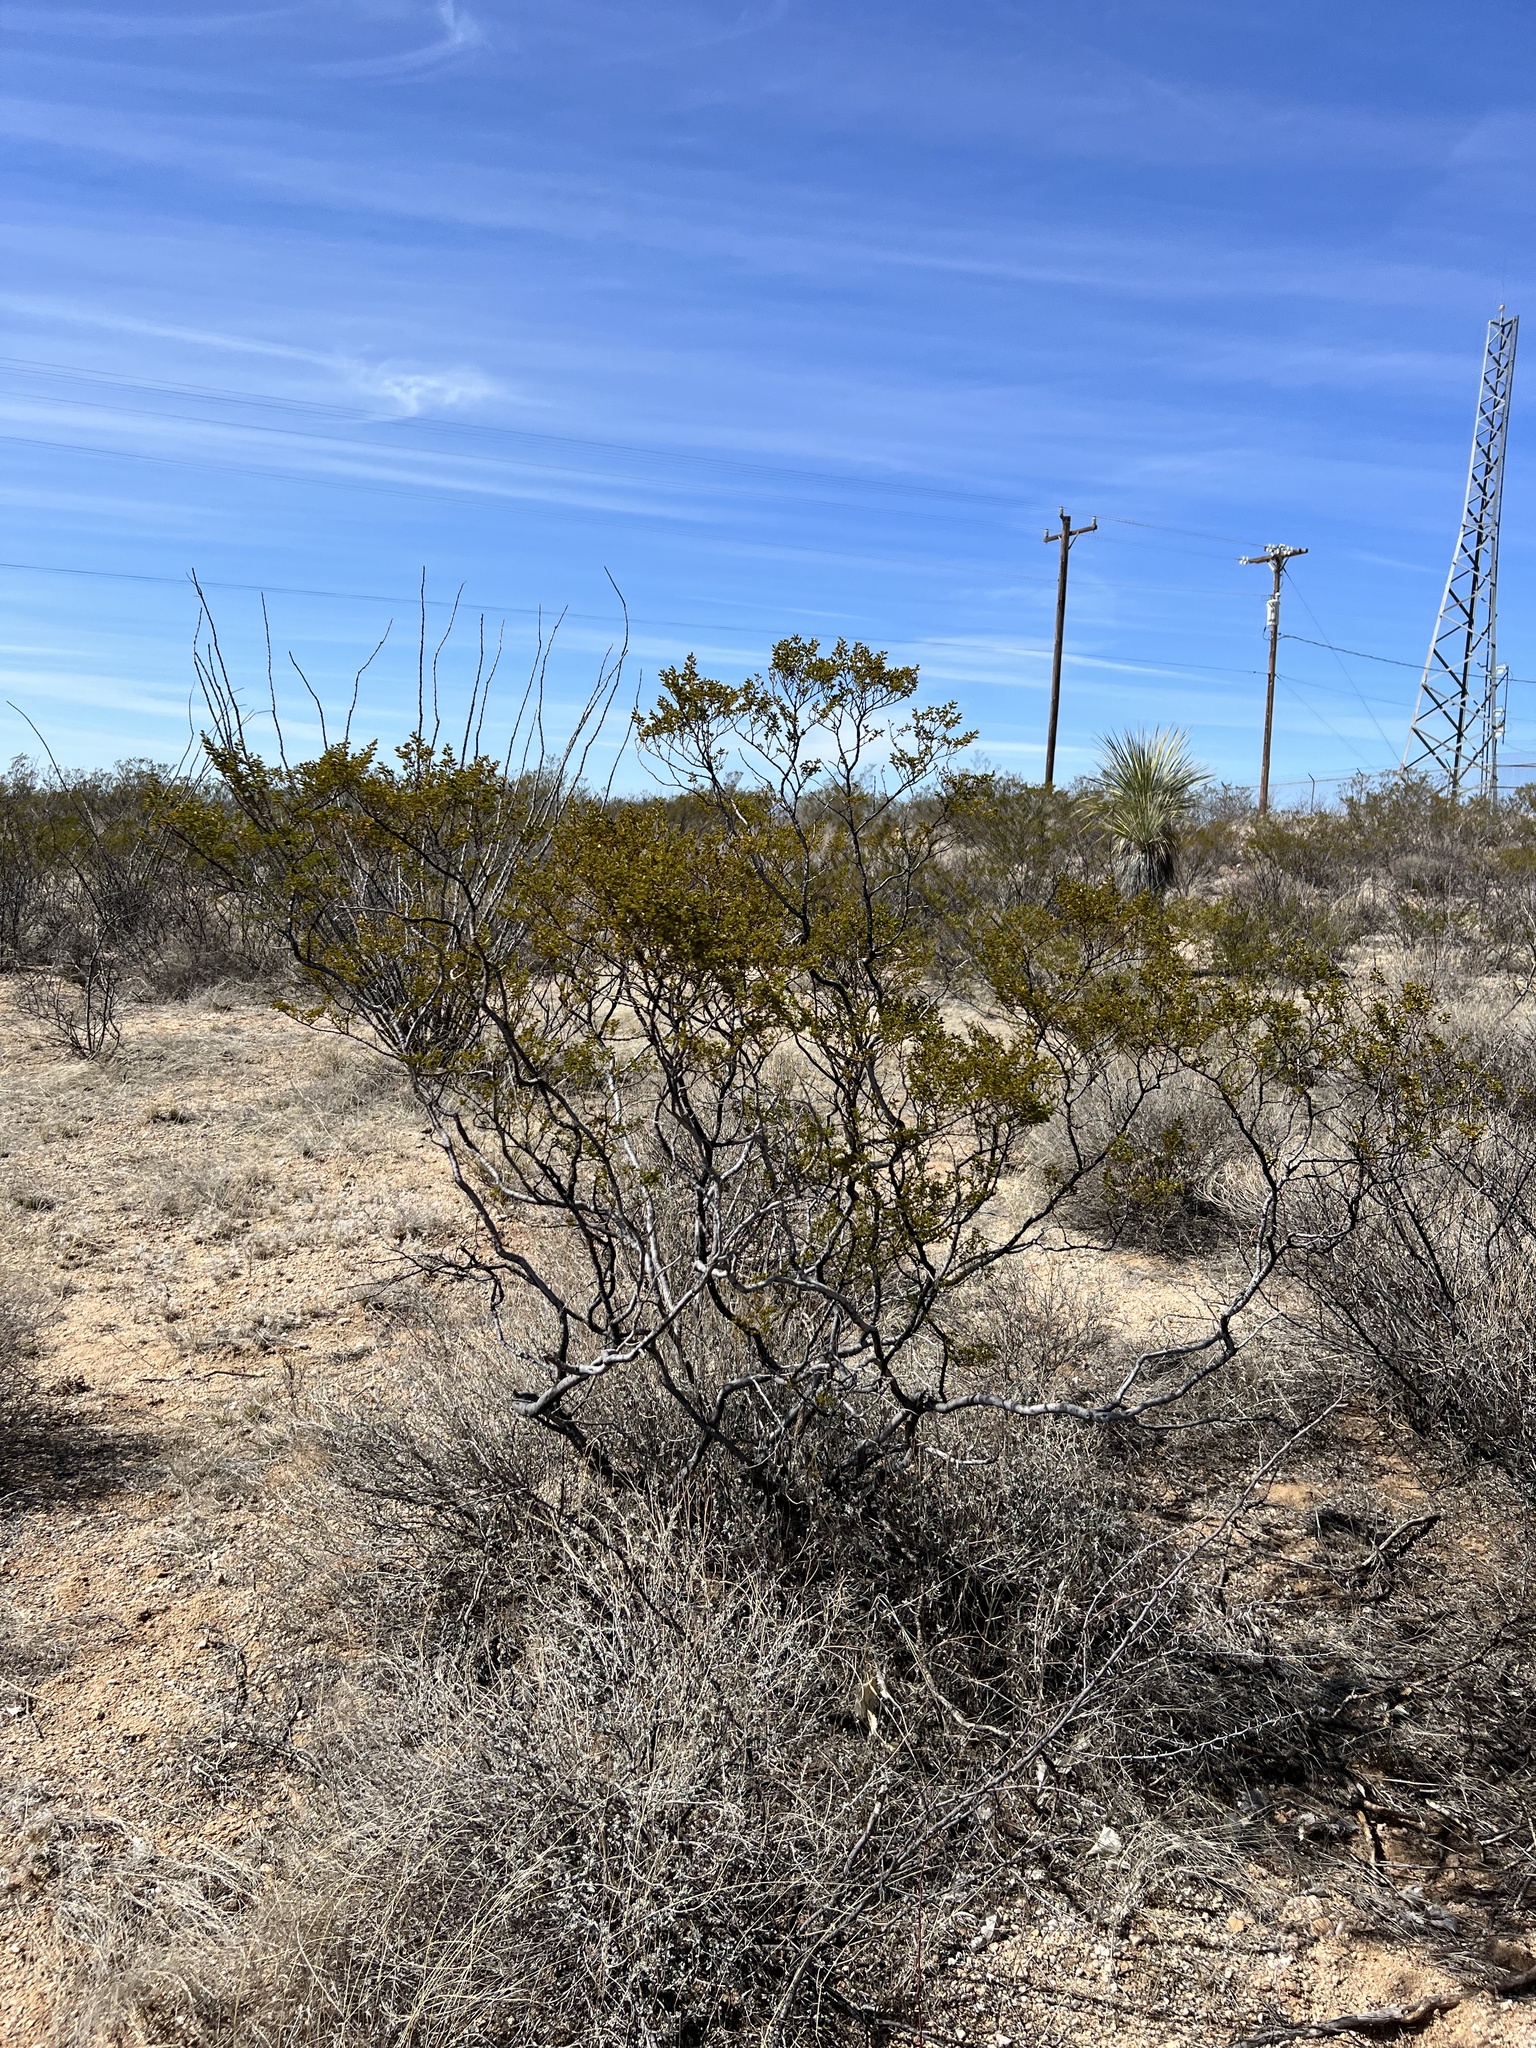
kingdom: Plantae
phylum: Tracheophyta
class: Magnoliopsida
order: Zygophyllales
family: Zygophyllaceae
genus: Larrea
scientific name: Larrea tridentata
